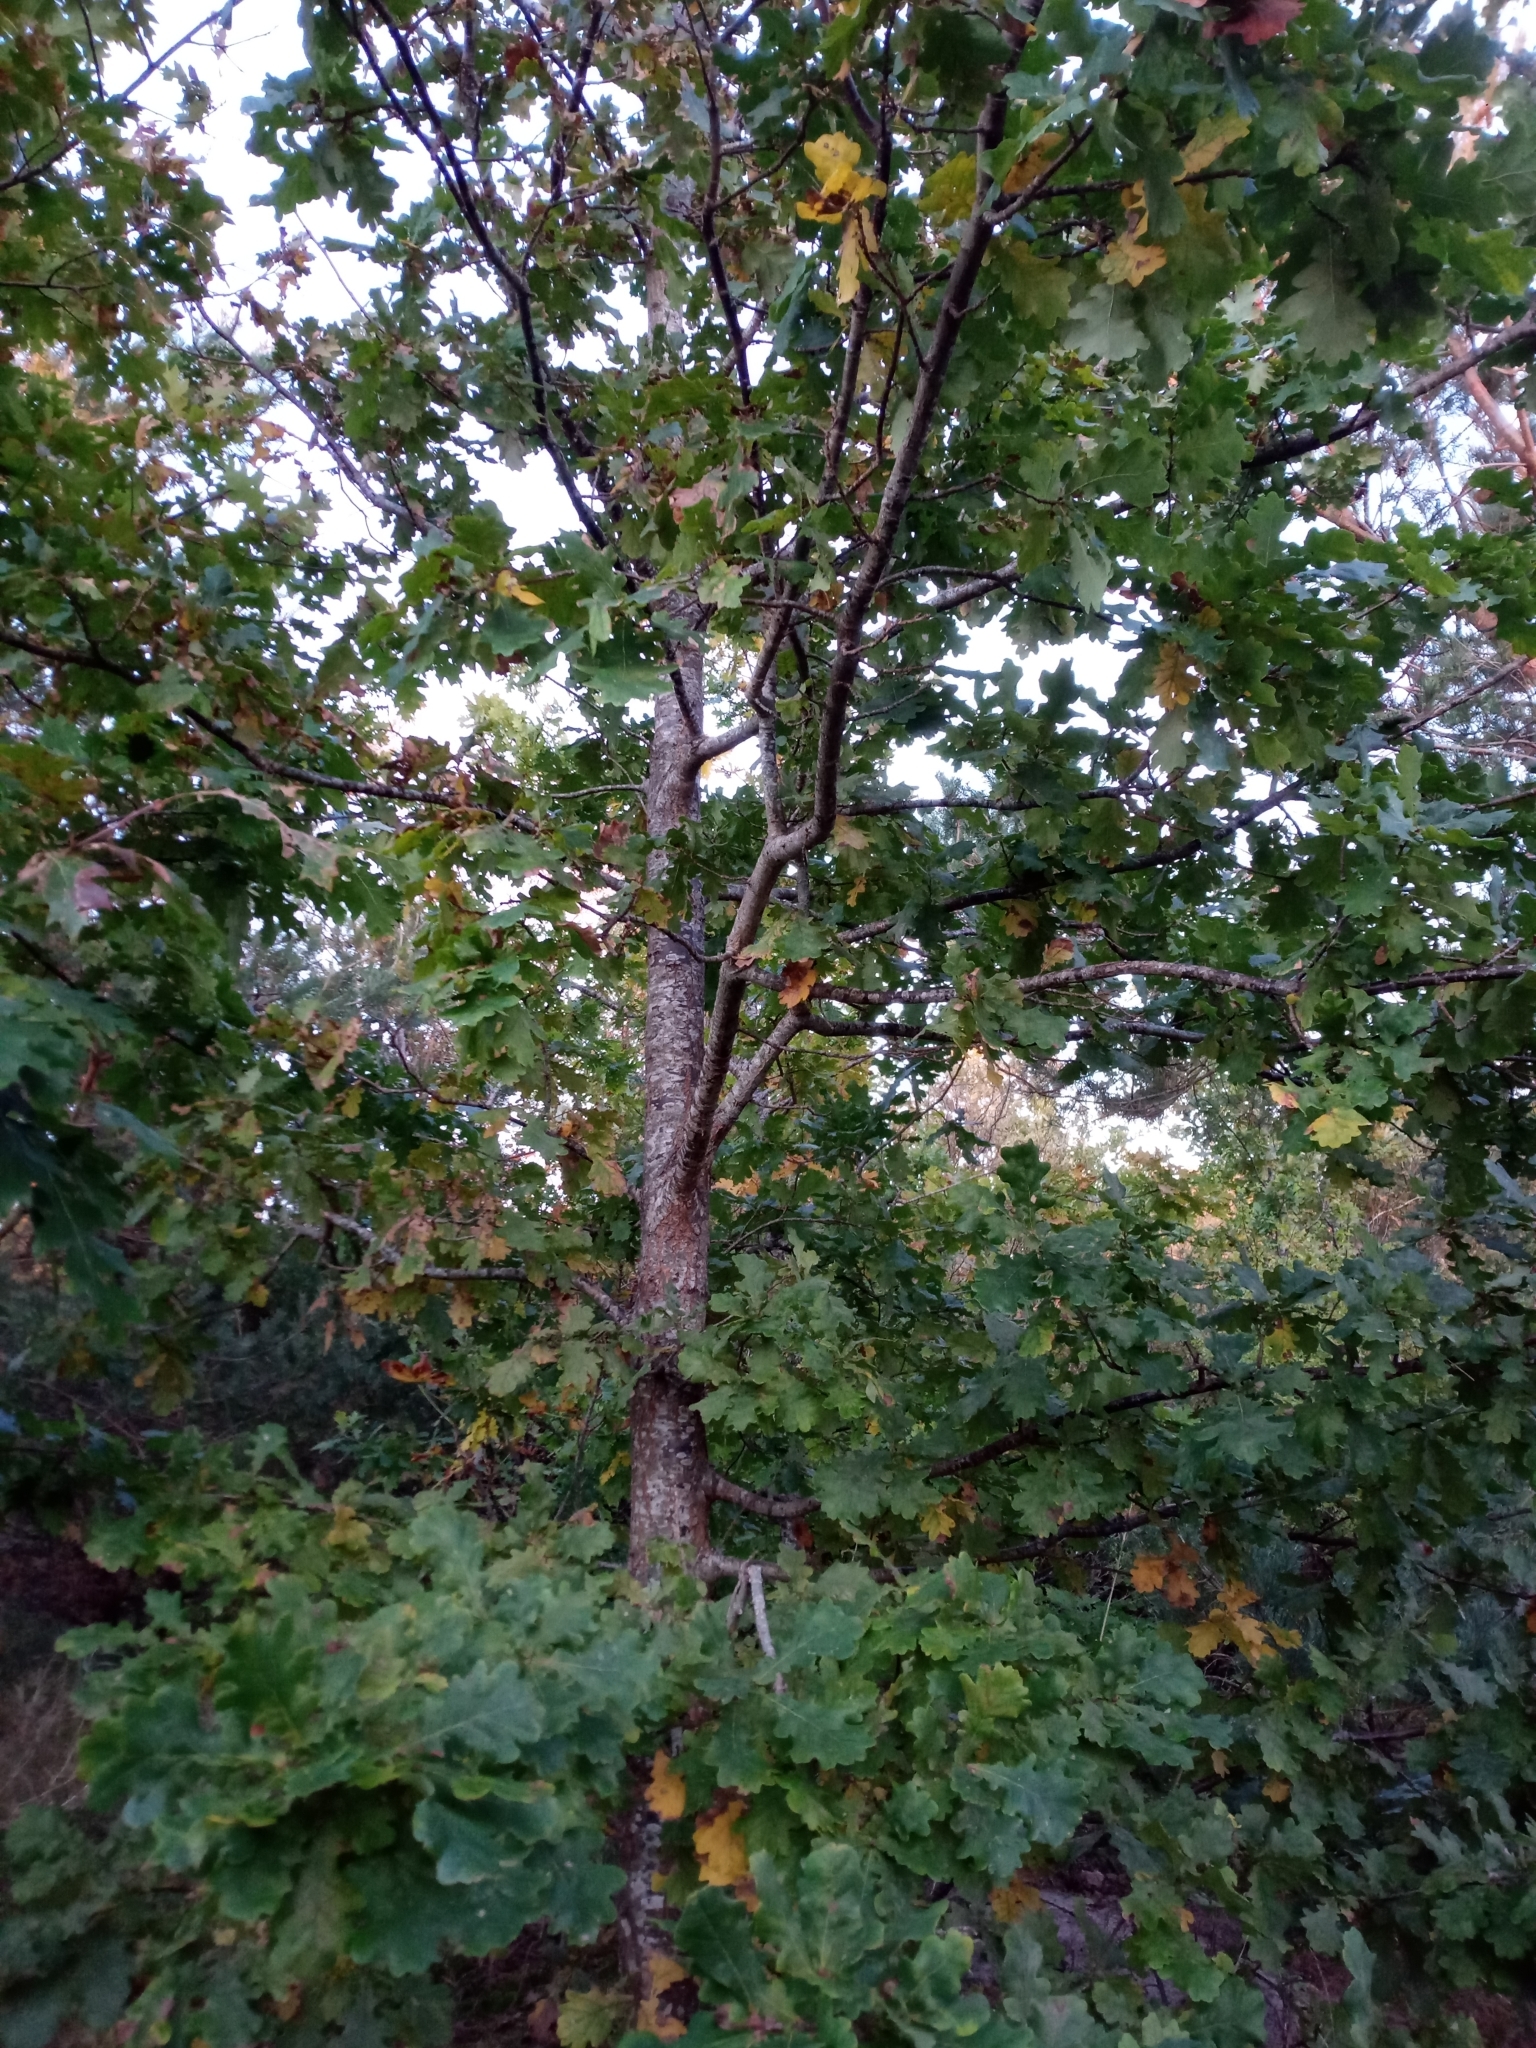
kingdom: Plantae
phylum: Tracheophyta
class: Magnoliopsida
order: Fagales
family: Fagaceae
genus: Quercus
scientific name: Quercus robur
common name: Pedunculate oak
